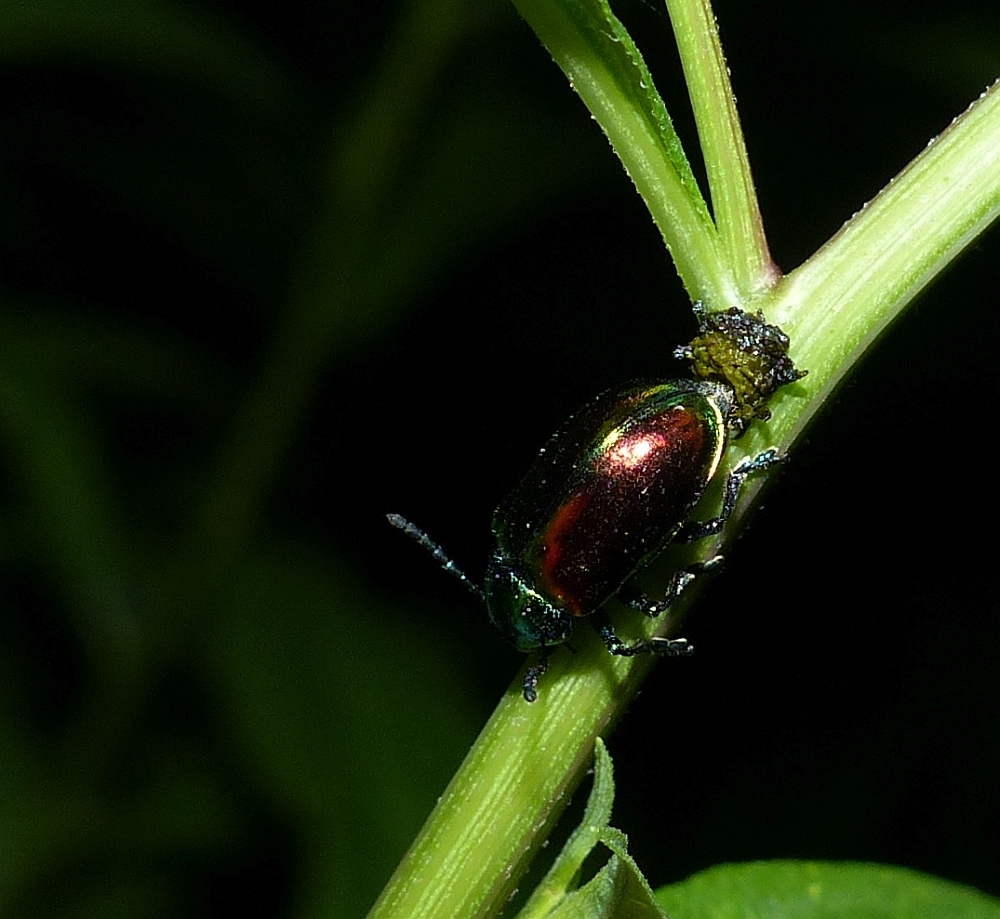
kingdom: Animalia
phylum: Arthropoda
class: Insecta
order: Coleoptera
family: Chrysomelidae
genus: Chrysochus
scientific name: Chrysochus auratus
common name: Dogbane leaf beetle
